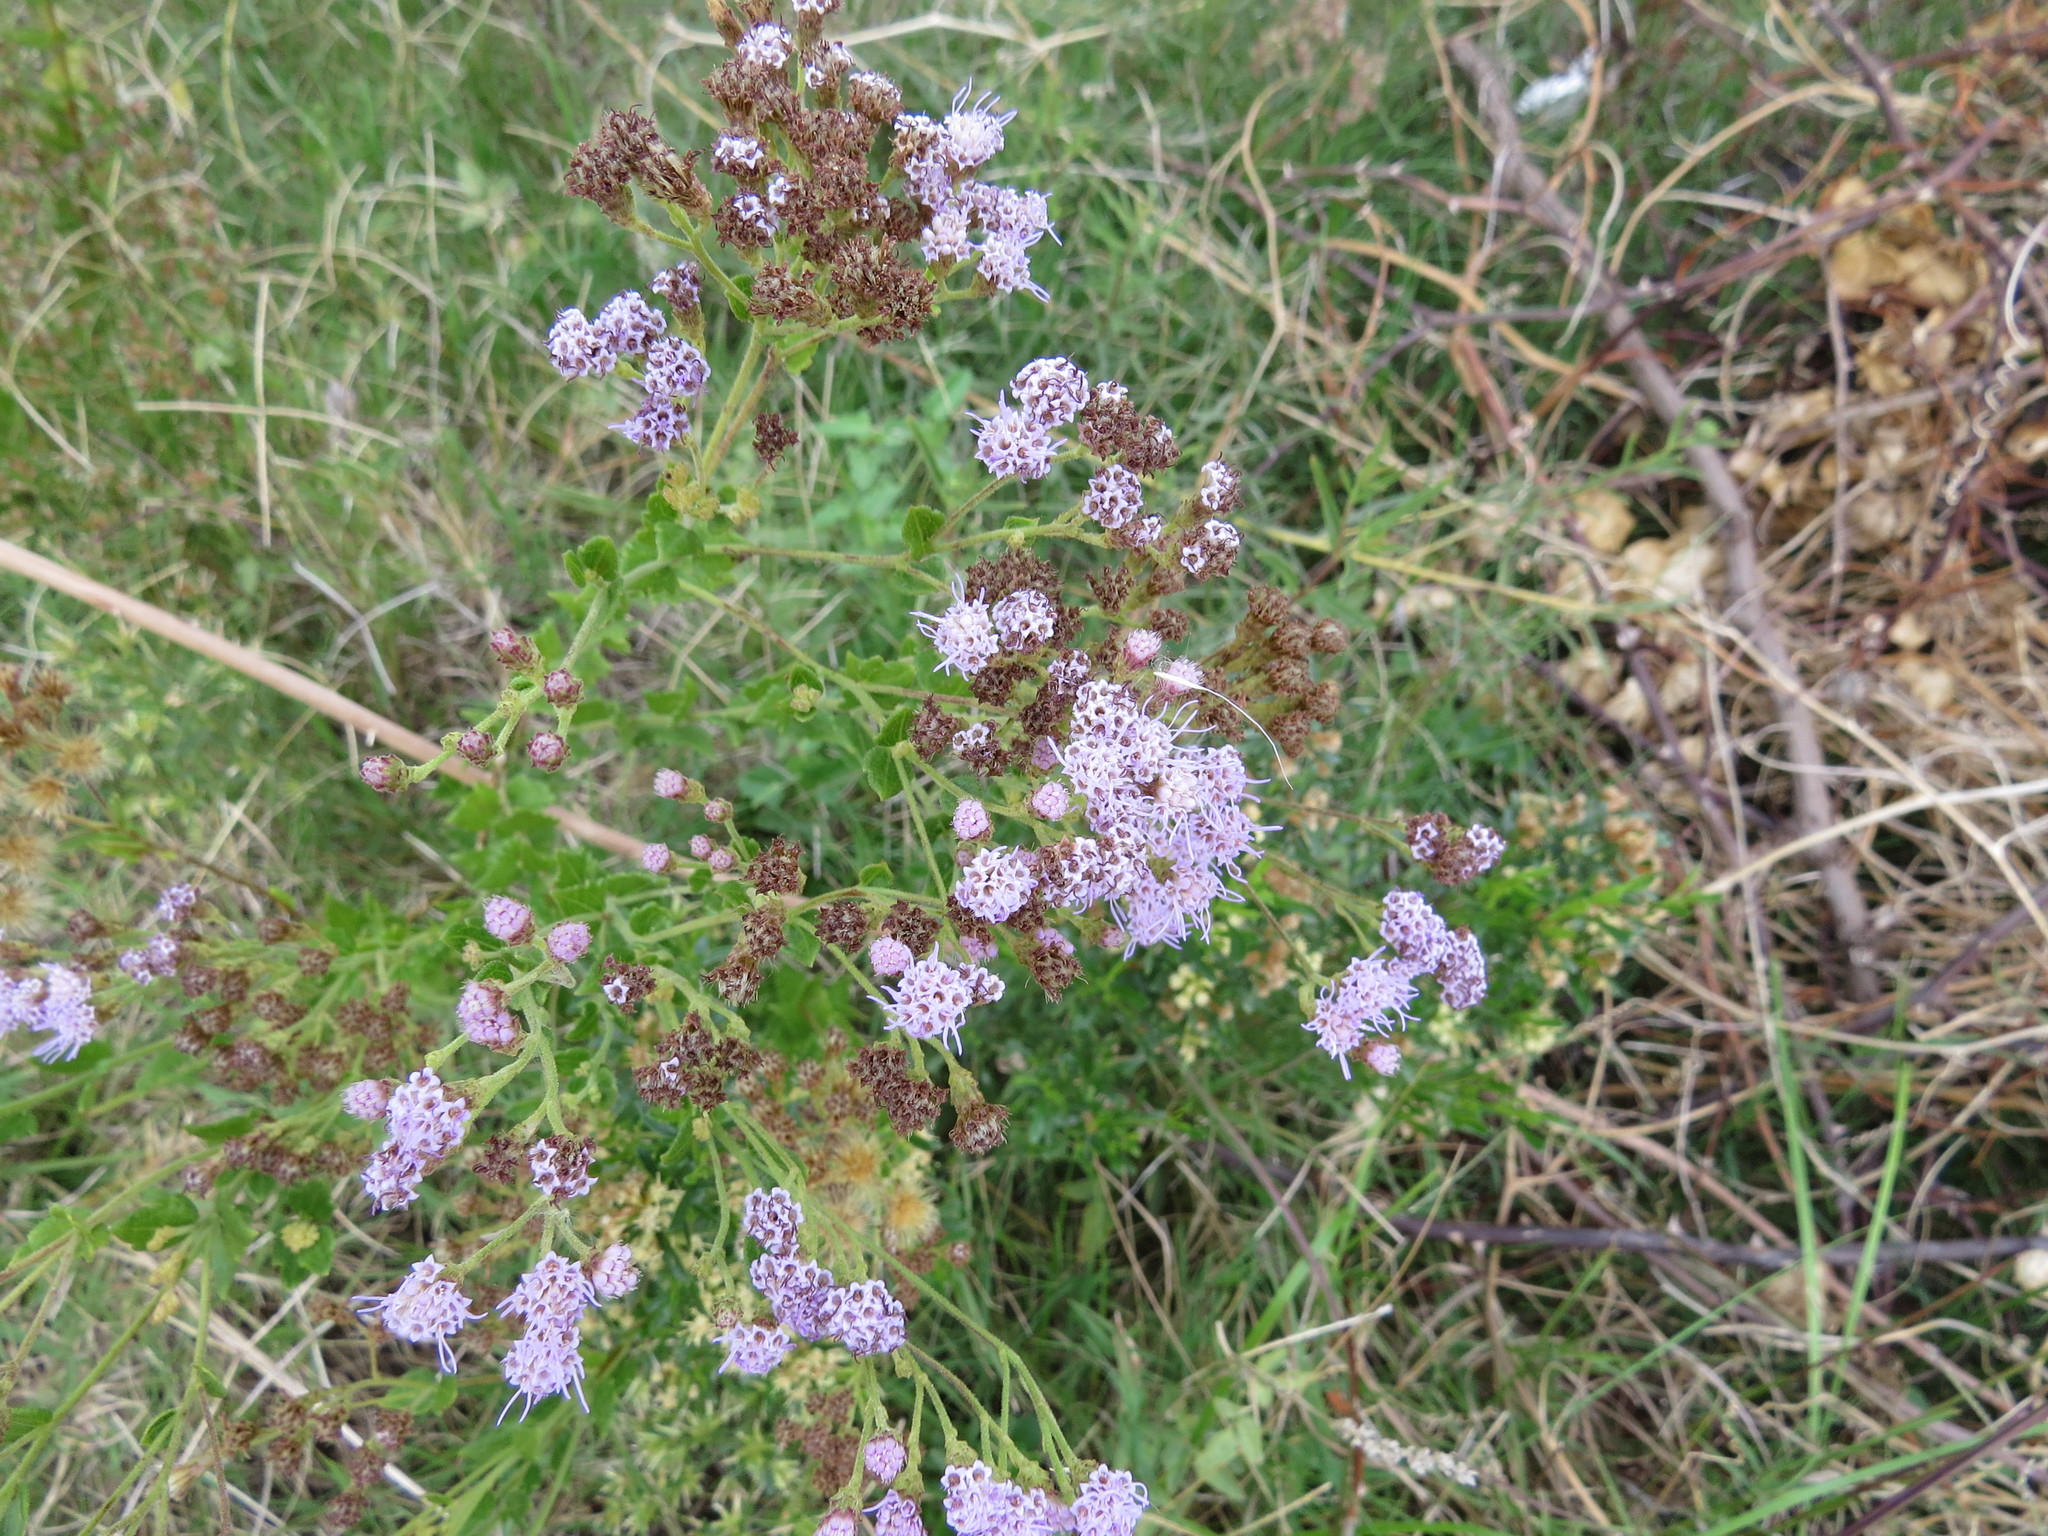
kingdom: Plantae
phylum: Tracheophyta
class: Magnoliopsida
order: Asterales
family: Asteraceae
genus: Chromolaena
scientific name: Chromolaena hirsuta
